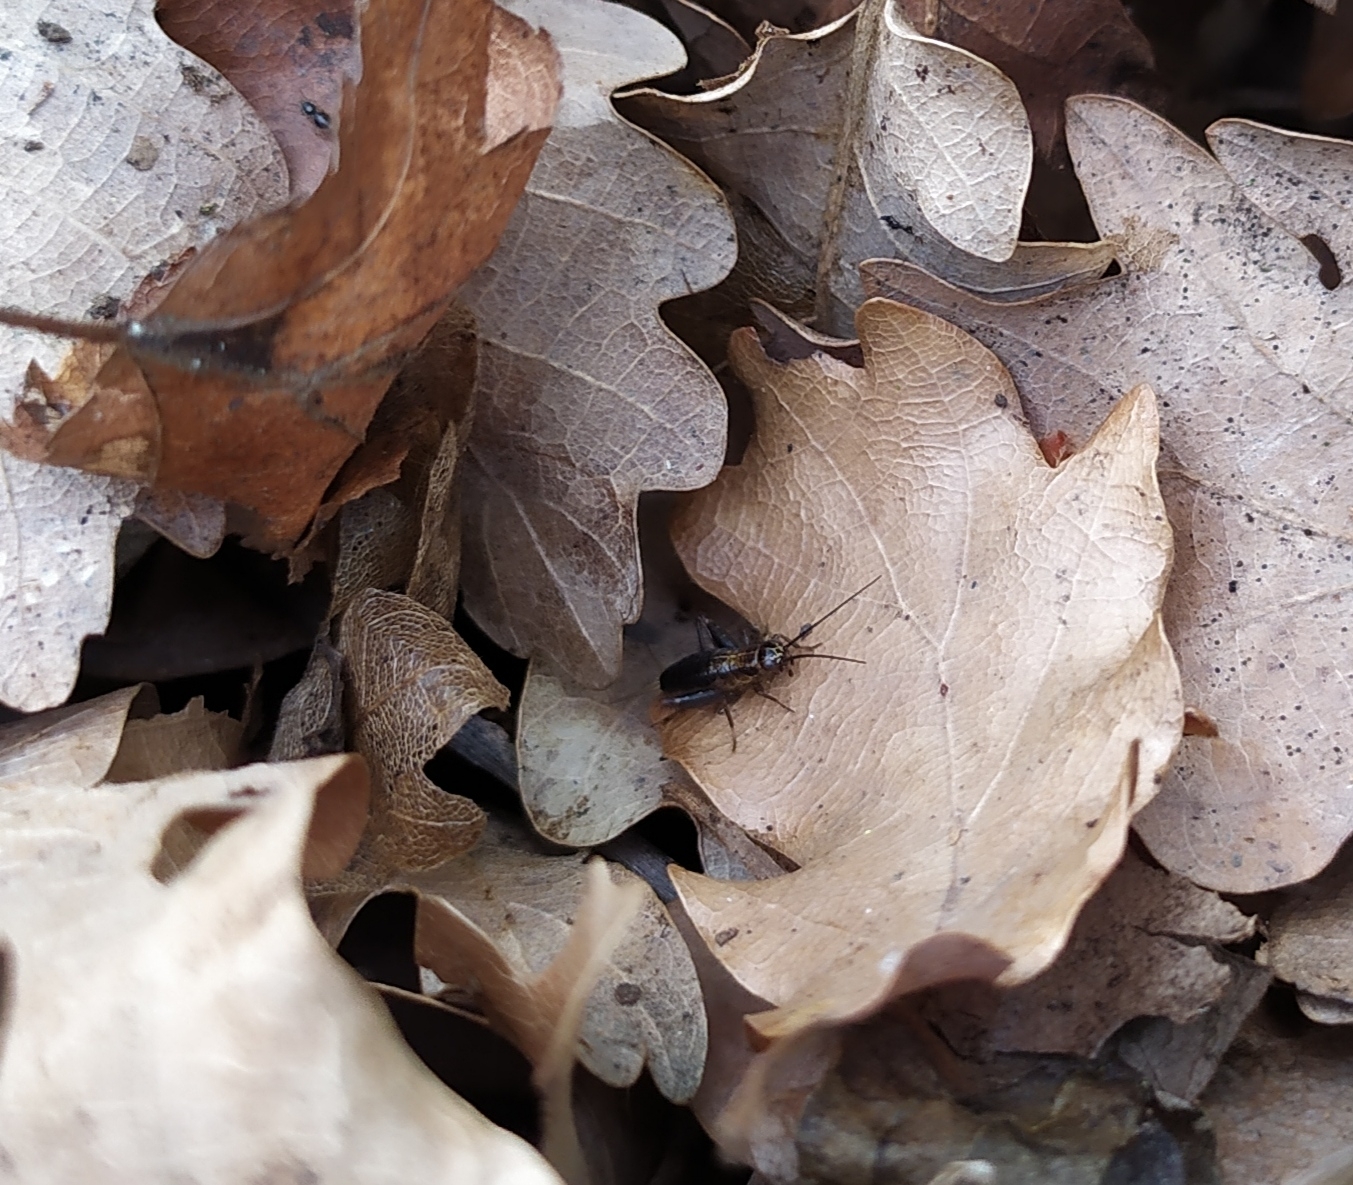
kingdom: Animalia
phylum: Arthropoda
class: Insecta
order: Orthoptera
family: Trigonidiidae
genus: Nemobius
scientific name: Nemobius sylvestris
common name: Wood-cricket
